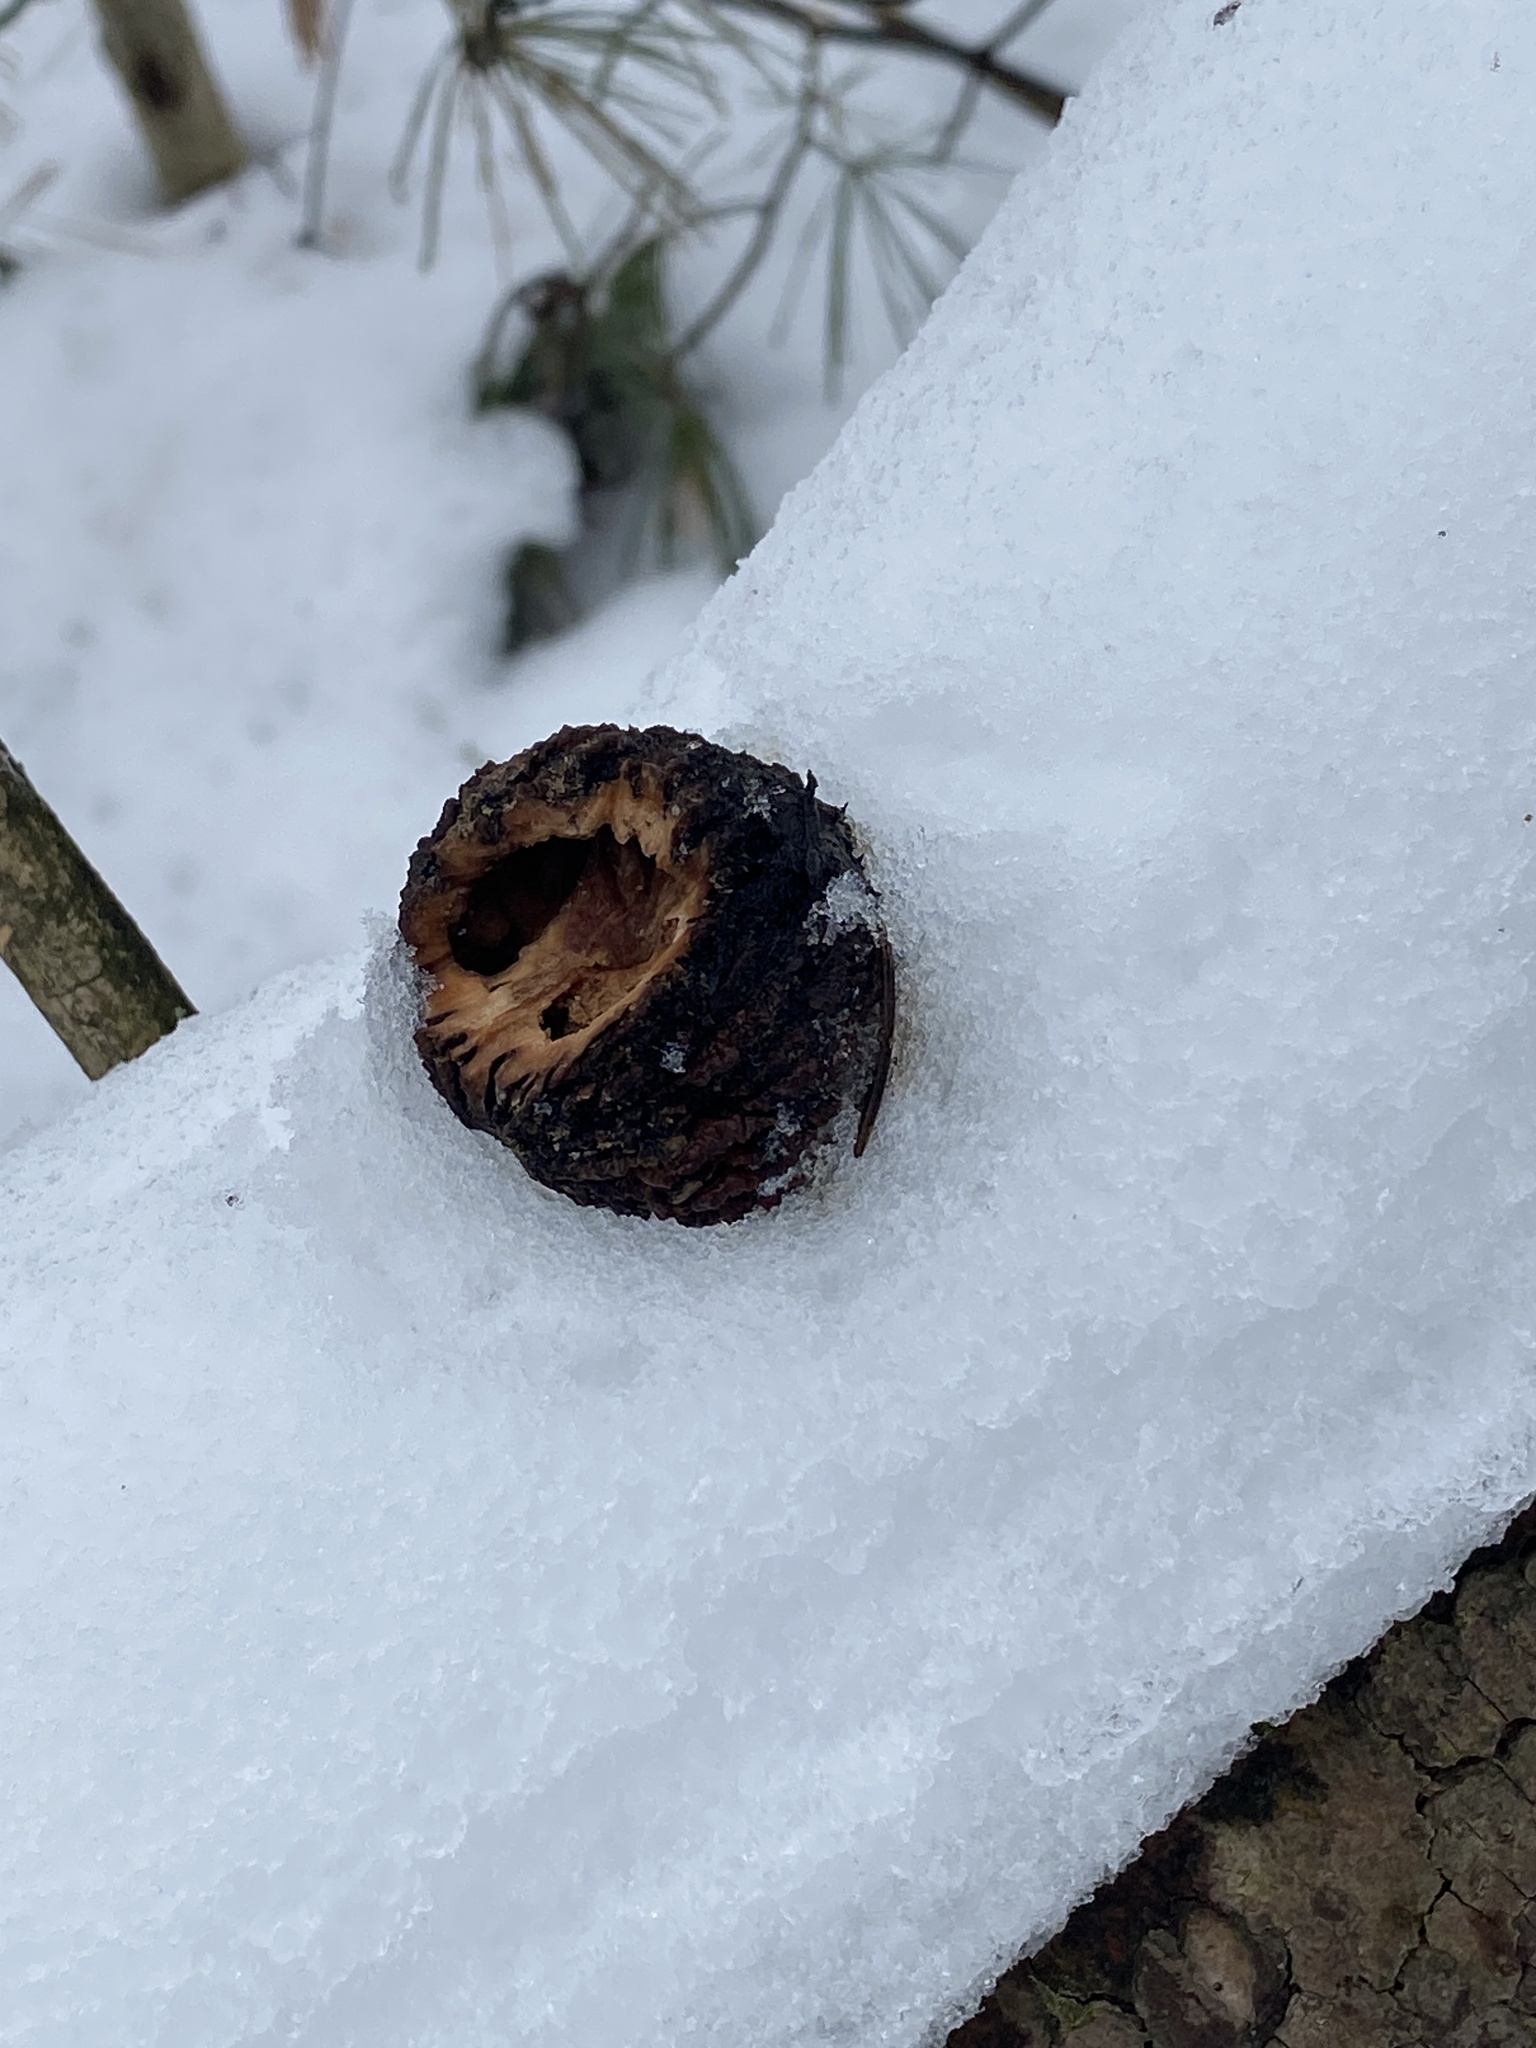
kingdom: Plantae
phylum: Tracheophyta
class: Magnoliopsida
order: Fagales
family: Juglandaceae
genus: Juglans
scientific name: Juglans nigra
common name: Black walnut
